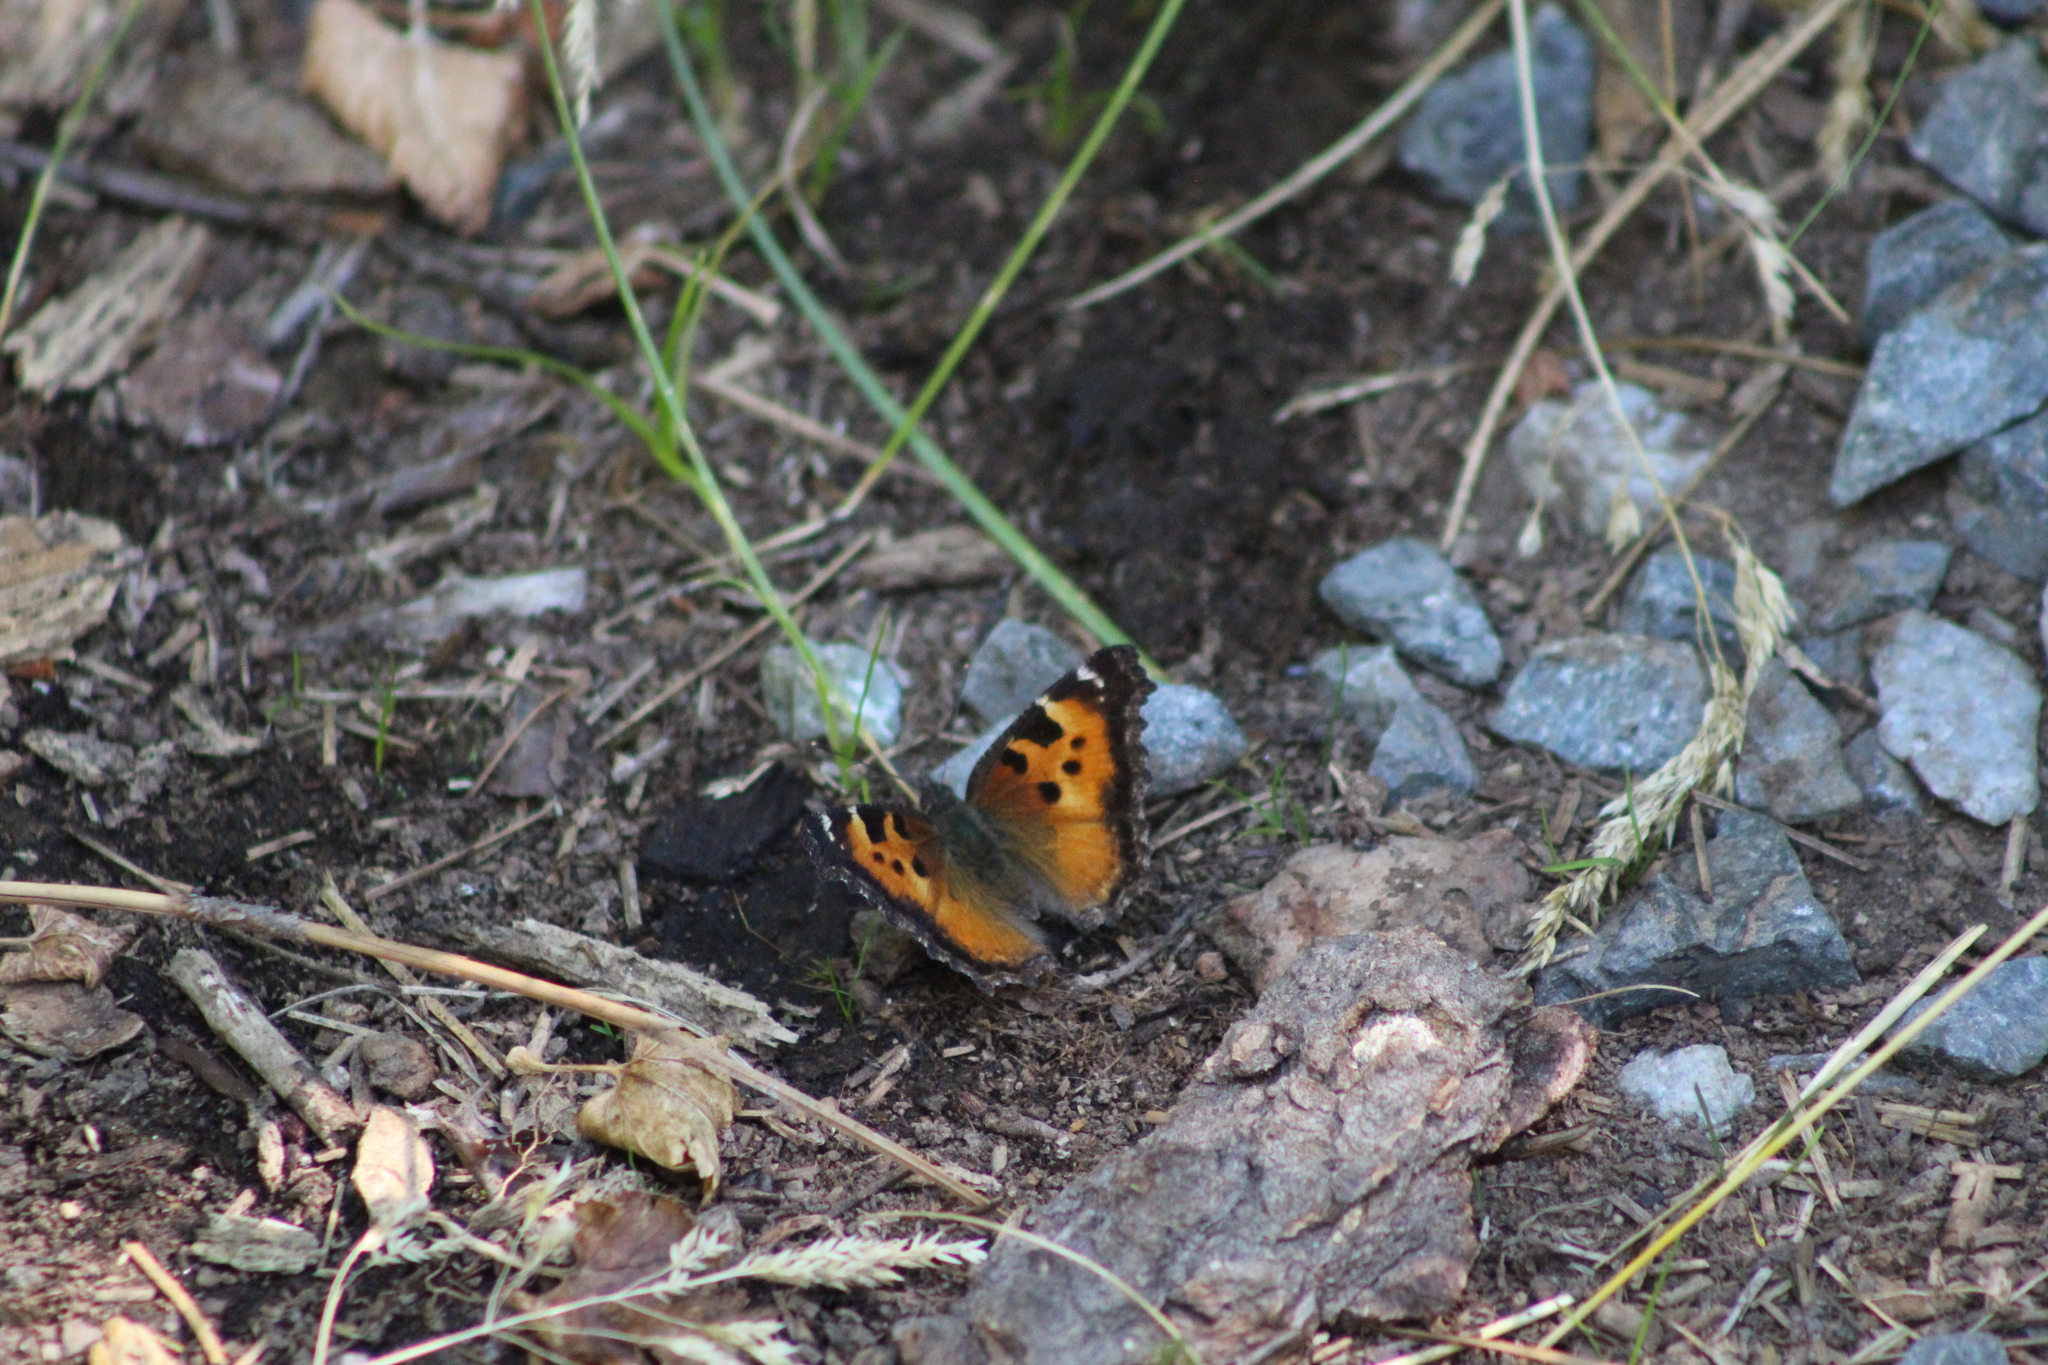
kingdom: Animalia
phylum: Arthropoda
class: Insecta
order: Lepidoptera
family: Nymphalidae
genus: Nymphalis
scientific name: Nymphalis californica
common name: California tortoiseshell
